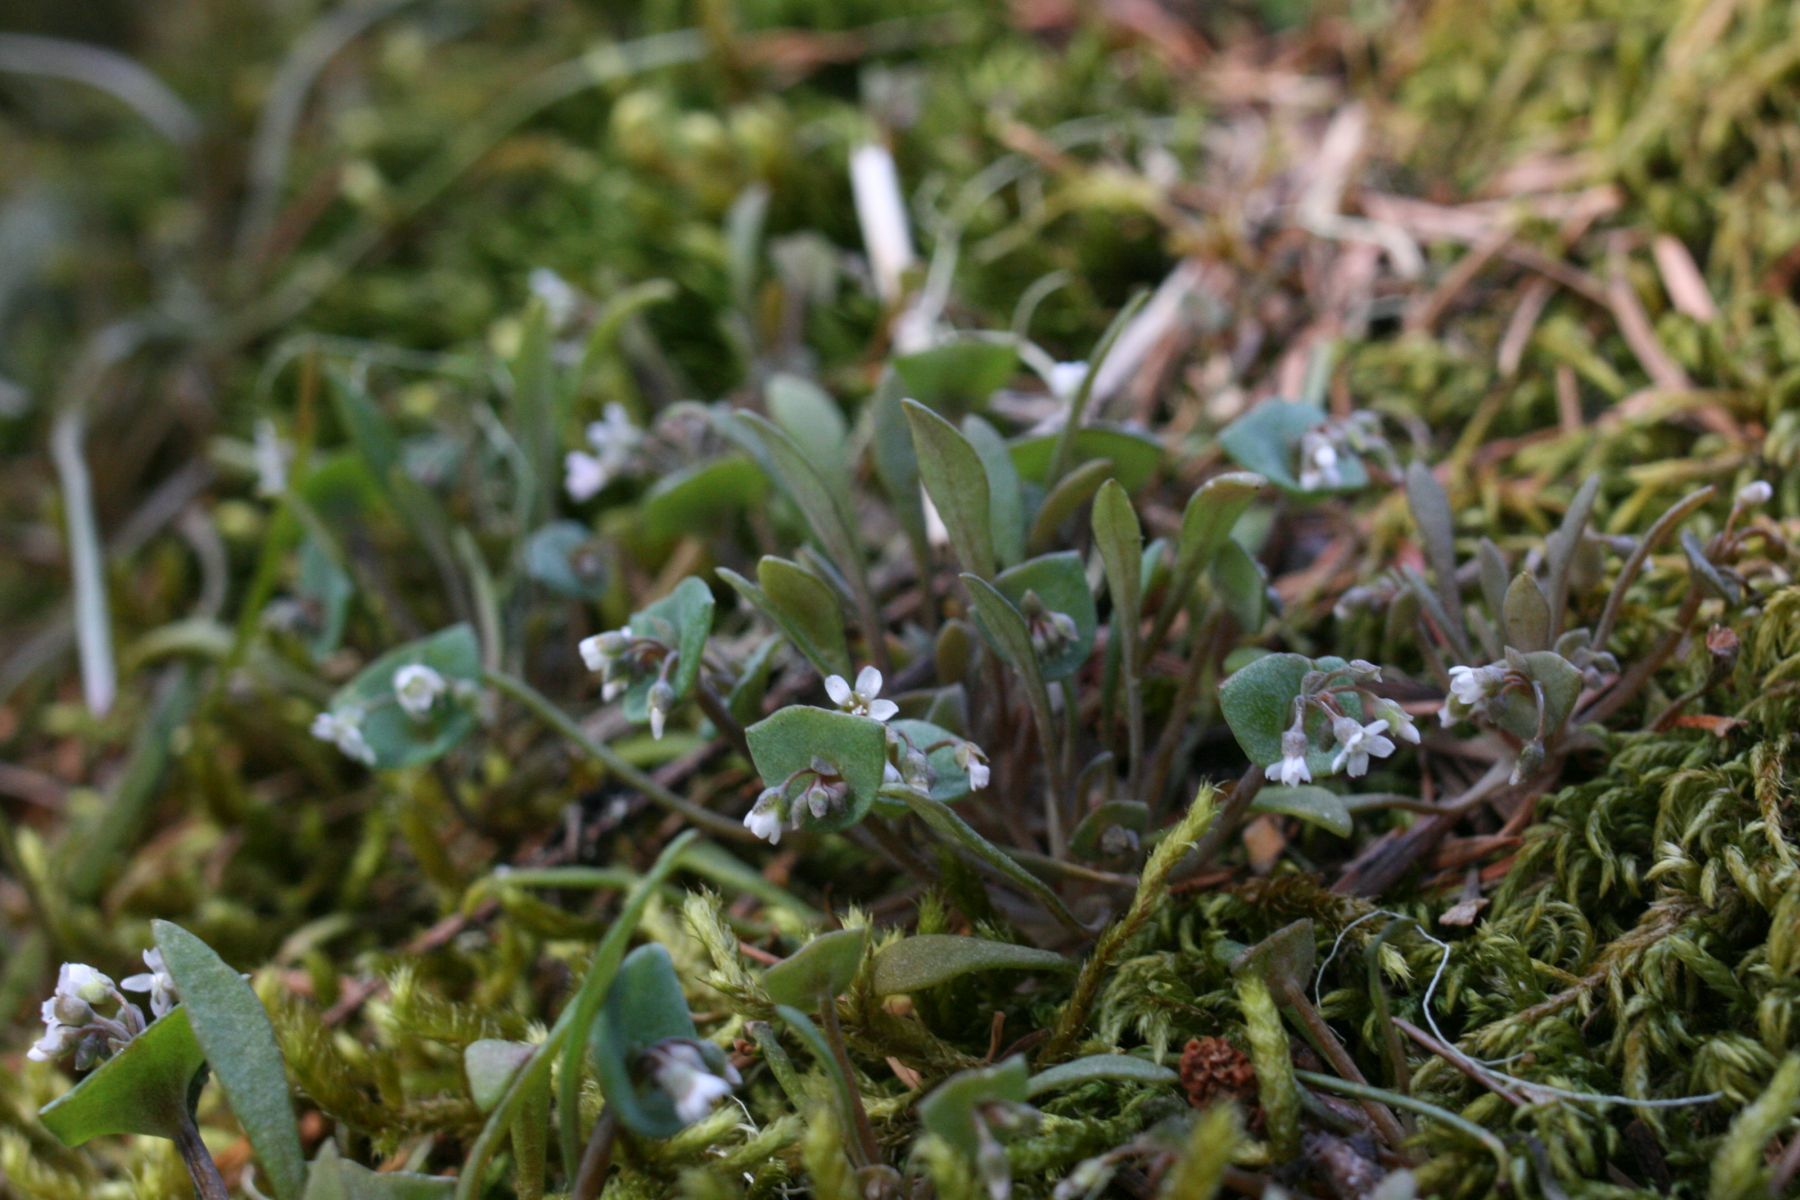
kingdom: Plantae
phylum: Tracheophyta
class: Magnoliopsida
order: Caryophyllales
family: Montiaceae
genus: Claytonia
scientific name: Claytonia exigua
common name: Pale spring beauty
